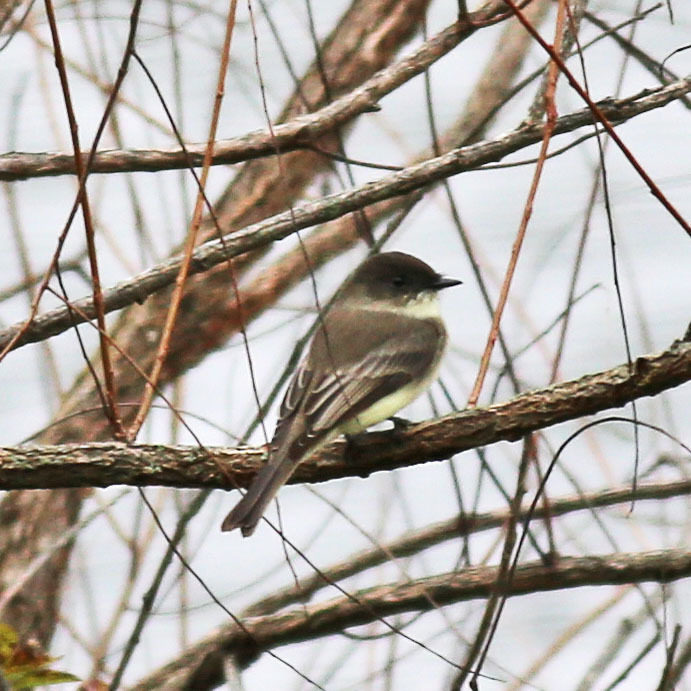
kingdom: Animalia
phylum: Chordata
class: Aves
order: Passeriformes
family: Tyrannidae
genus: Sayornis
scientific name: Sayornis phoebe
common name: Eastern phoebe
